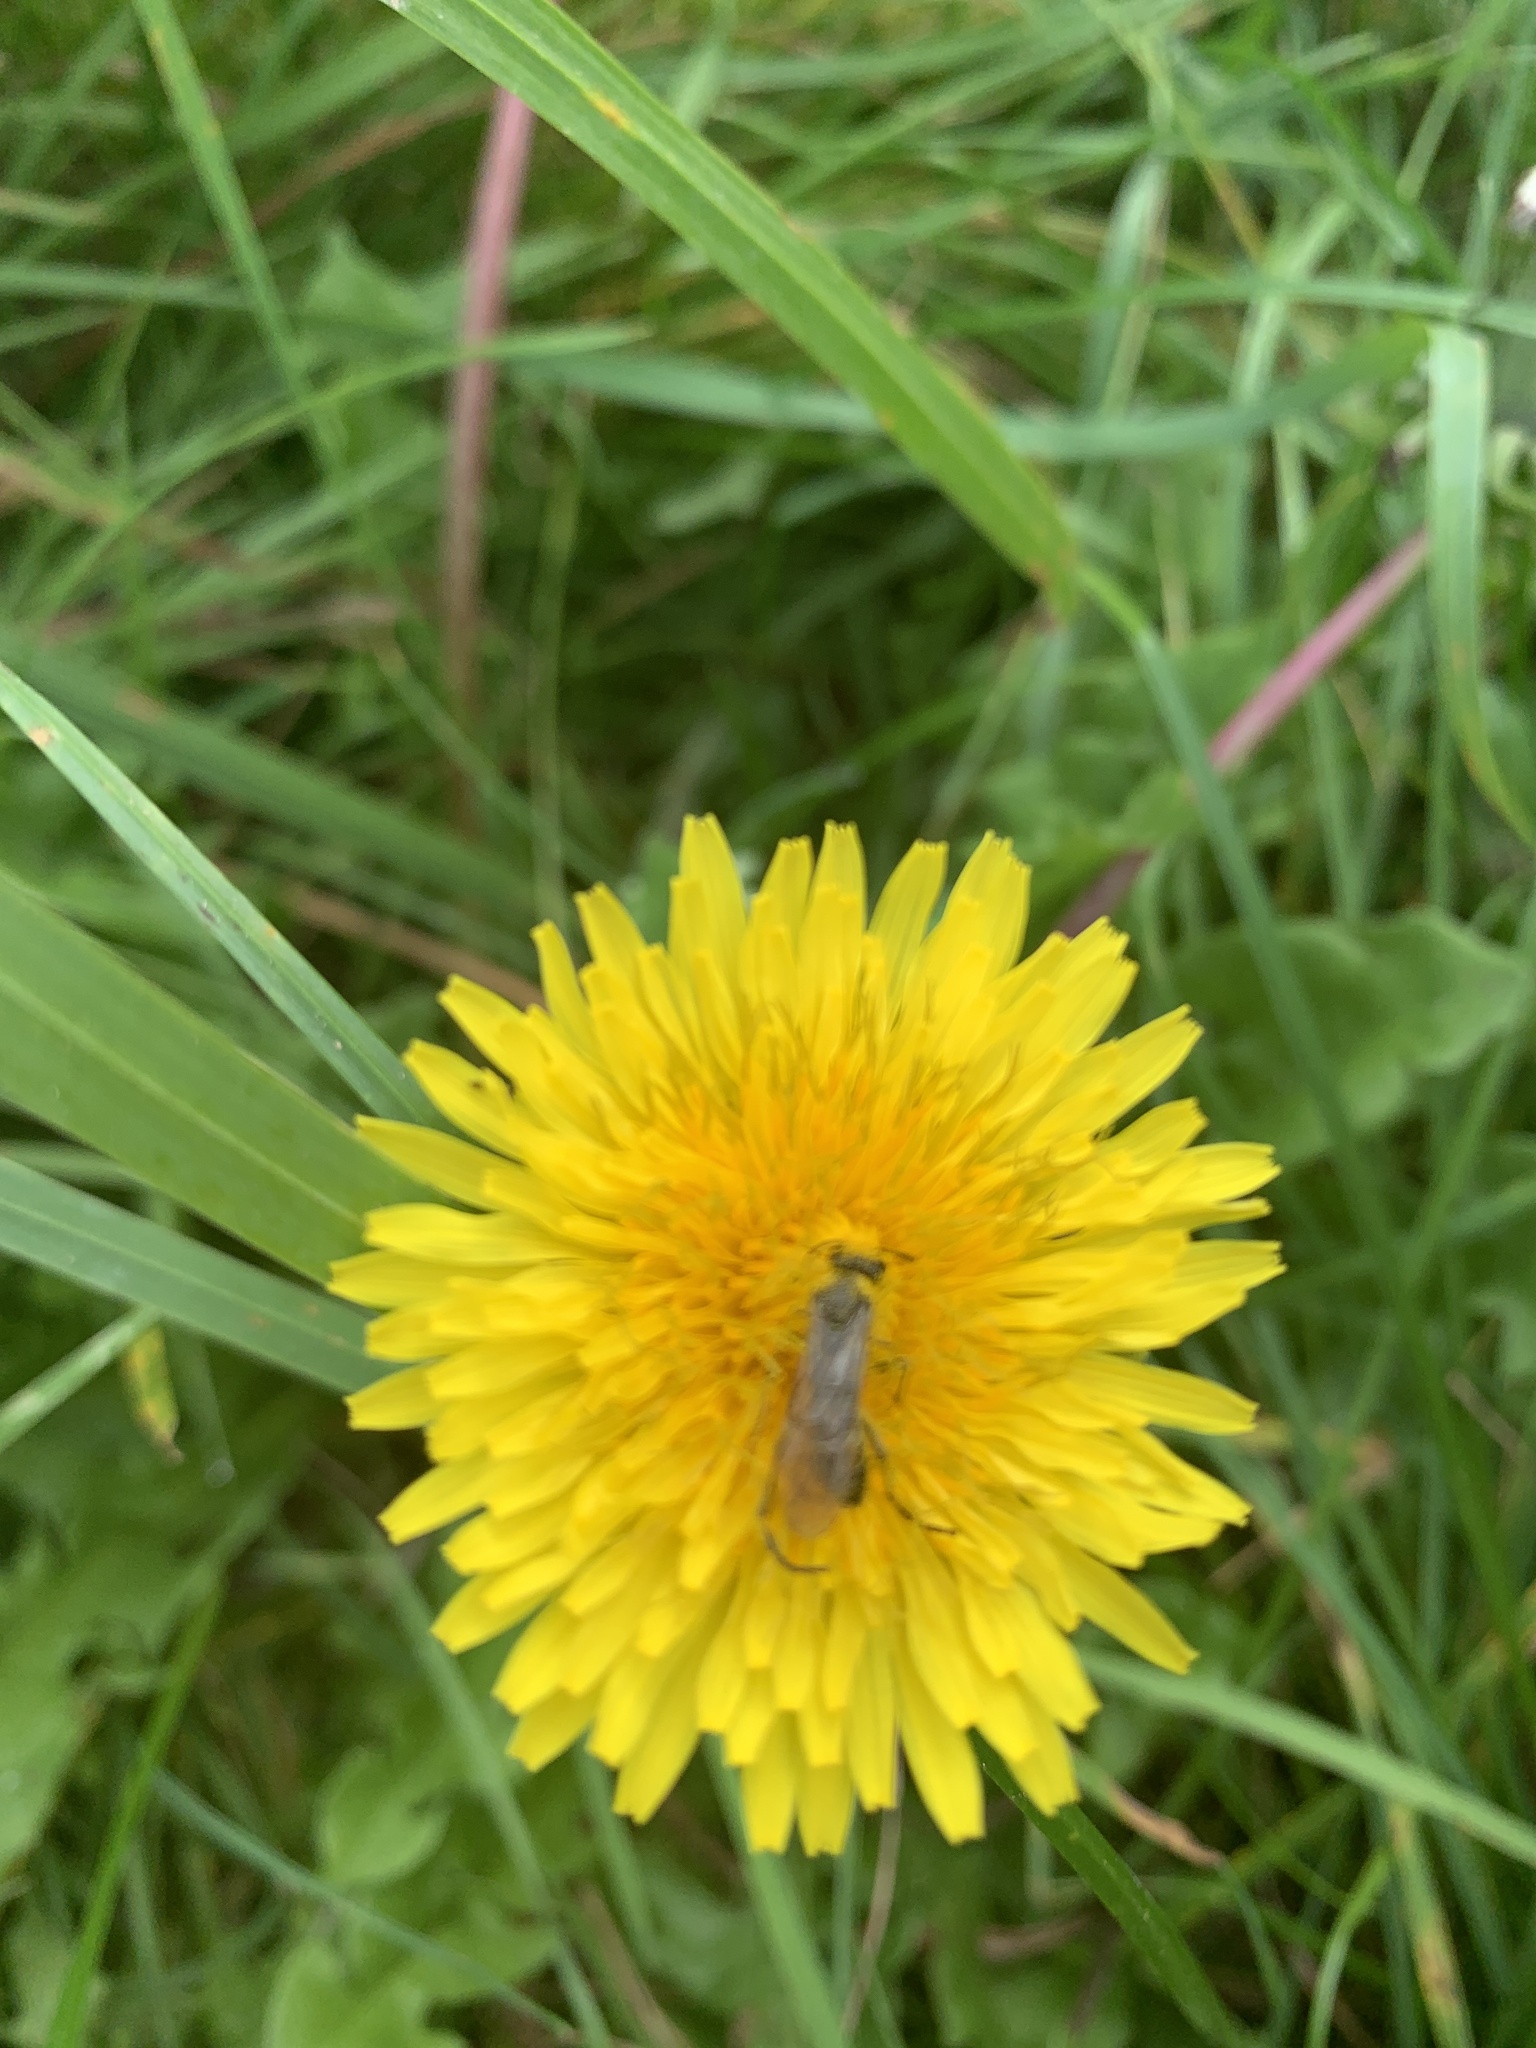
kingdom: Plantae
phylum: Tracheophyta
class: Magnoliopsida
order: Asterales
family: Asteraceae
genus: Taraxacum
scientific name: Taraxacum officinale
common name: Common dandelion
